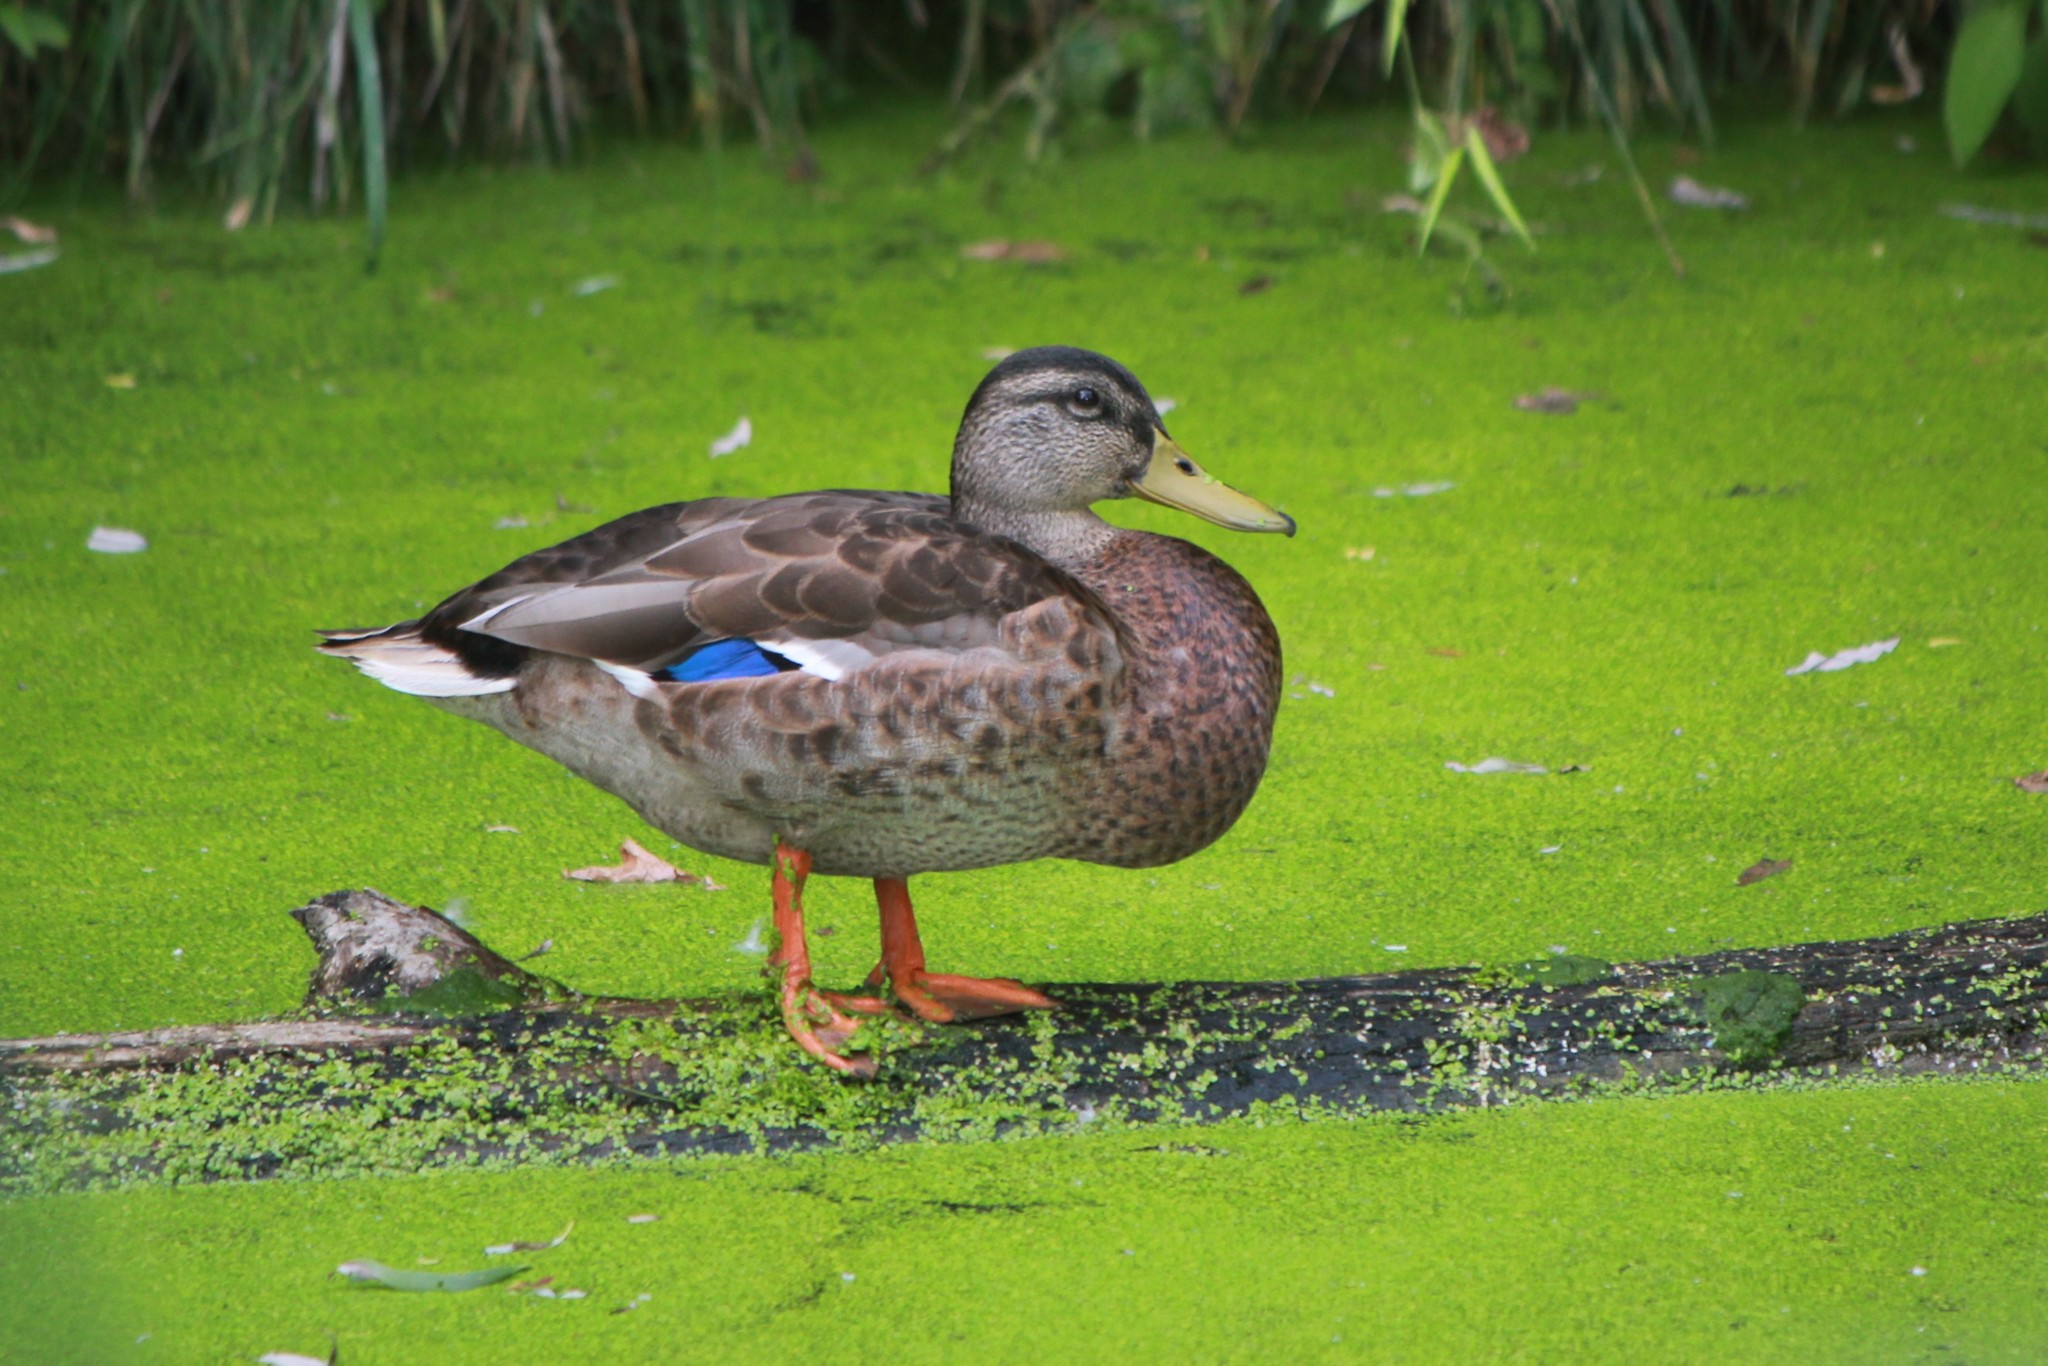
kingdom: Animalia
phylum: Chordata
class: Aves
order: Anseriformes
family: Anatidae
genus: Anas
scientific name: Anas platyrhynchos
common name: Mallard
